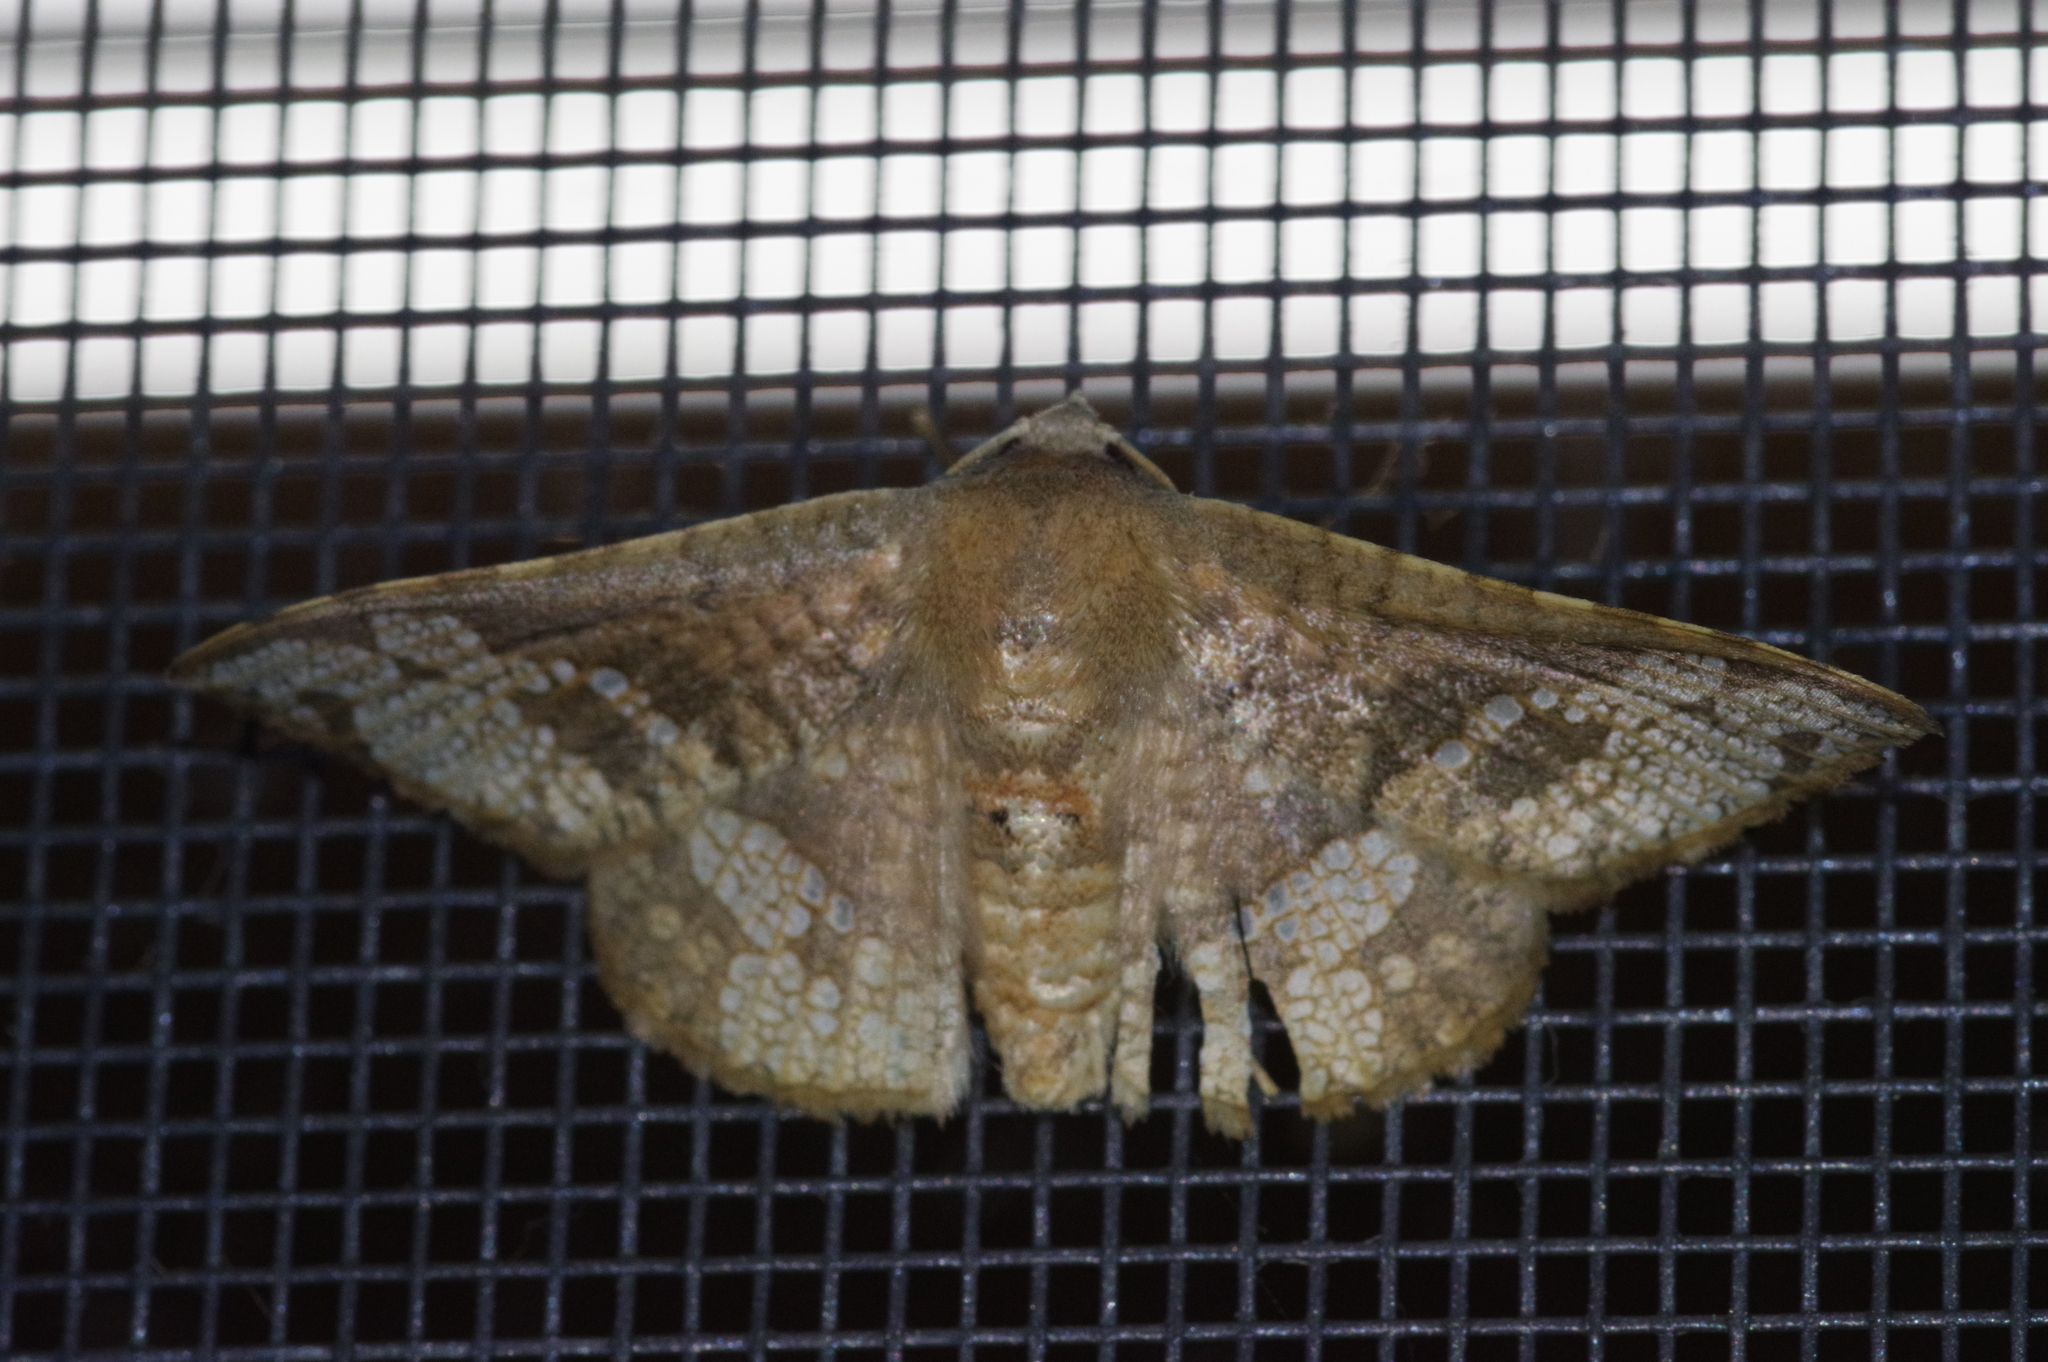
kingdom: Animalia
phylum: Arthropoda
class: Insecta
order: Lepidoptera
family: Thyrididae
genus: Canaea
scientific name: Canaea ryukyuensis
